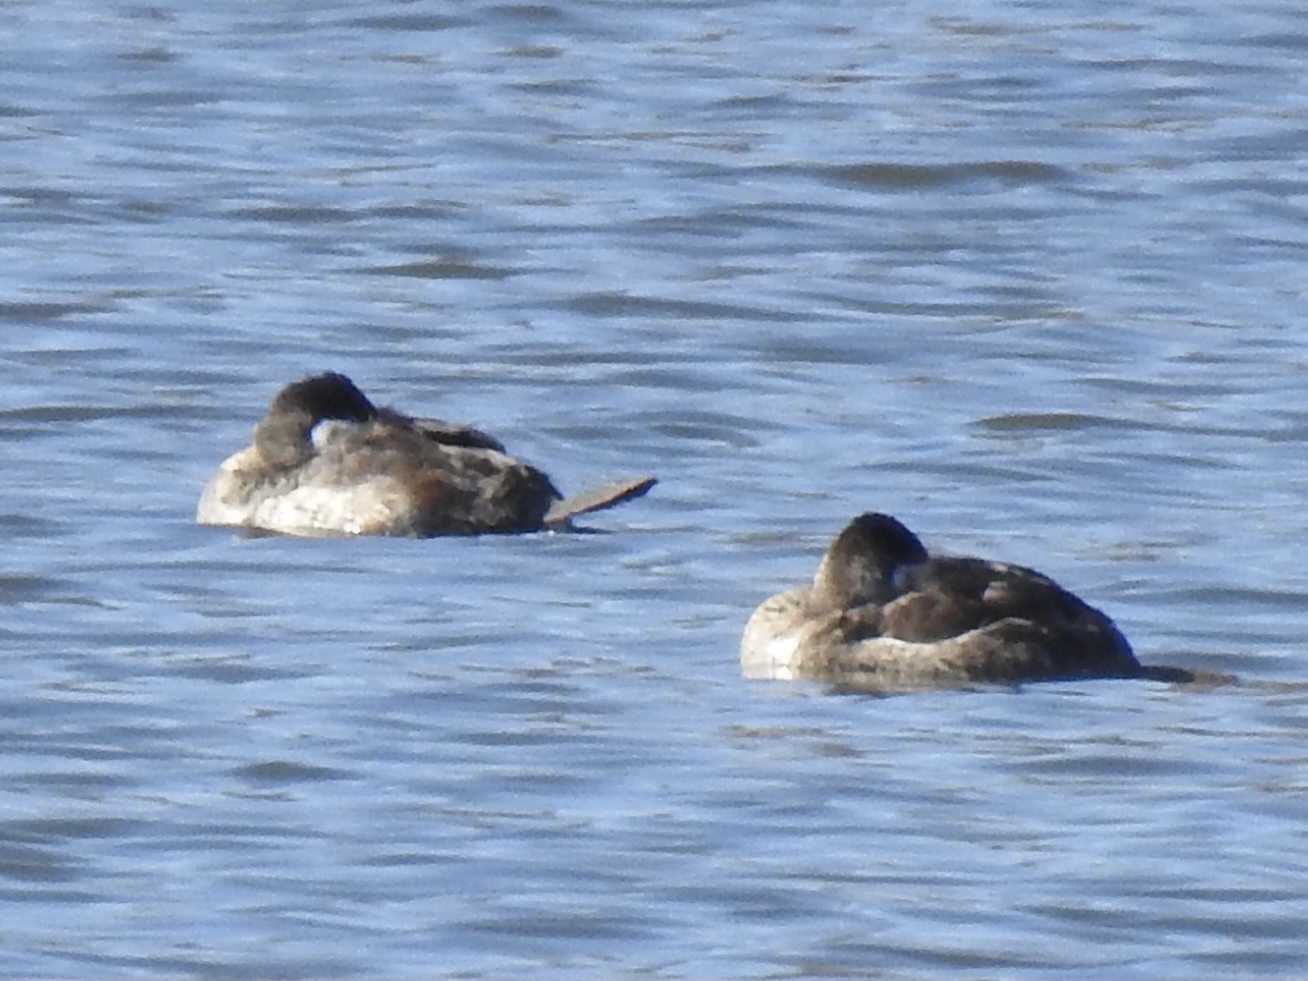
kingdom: Animalia
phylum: Chordata
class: Aves
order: Anseriformes
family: Anatidae
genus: Oxyura
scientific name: Oxyura jamaicensis
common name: Ruddy duck
